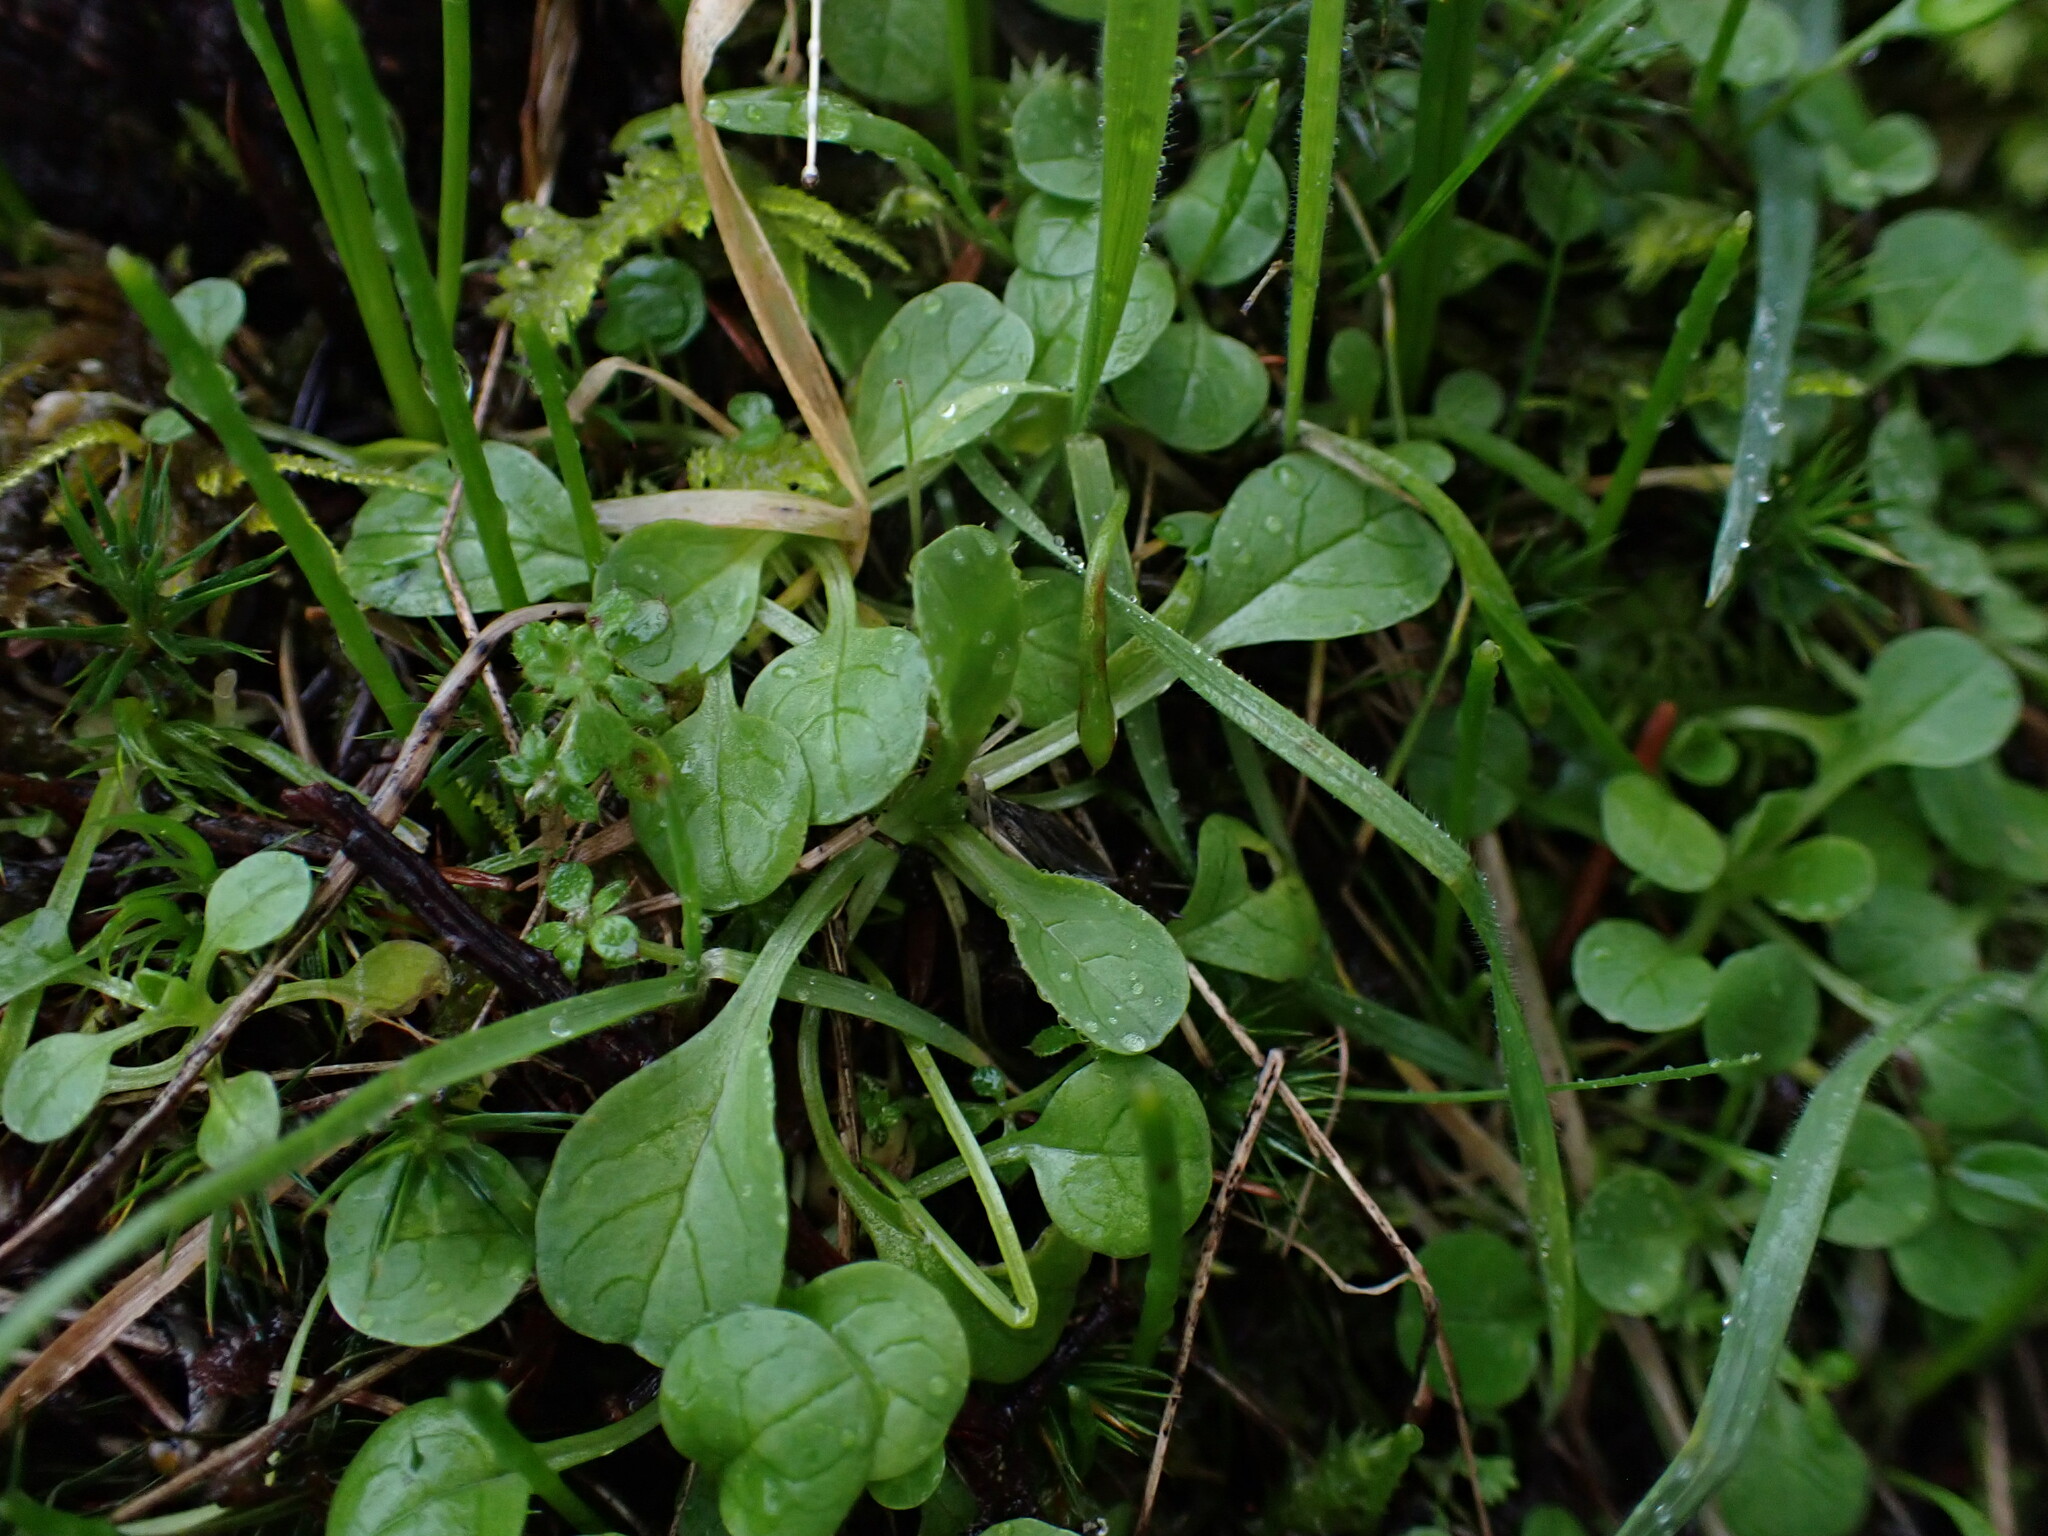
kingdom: Plantae
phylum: Tracheophyta
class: Magnoliopsida
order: Dipsacales
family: Caprifoliaceae
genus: Plectritis
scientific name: Plectritis congesta
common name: Pink plectritis
